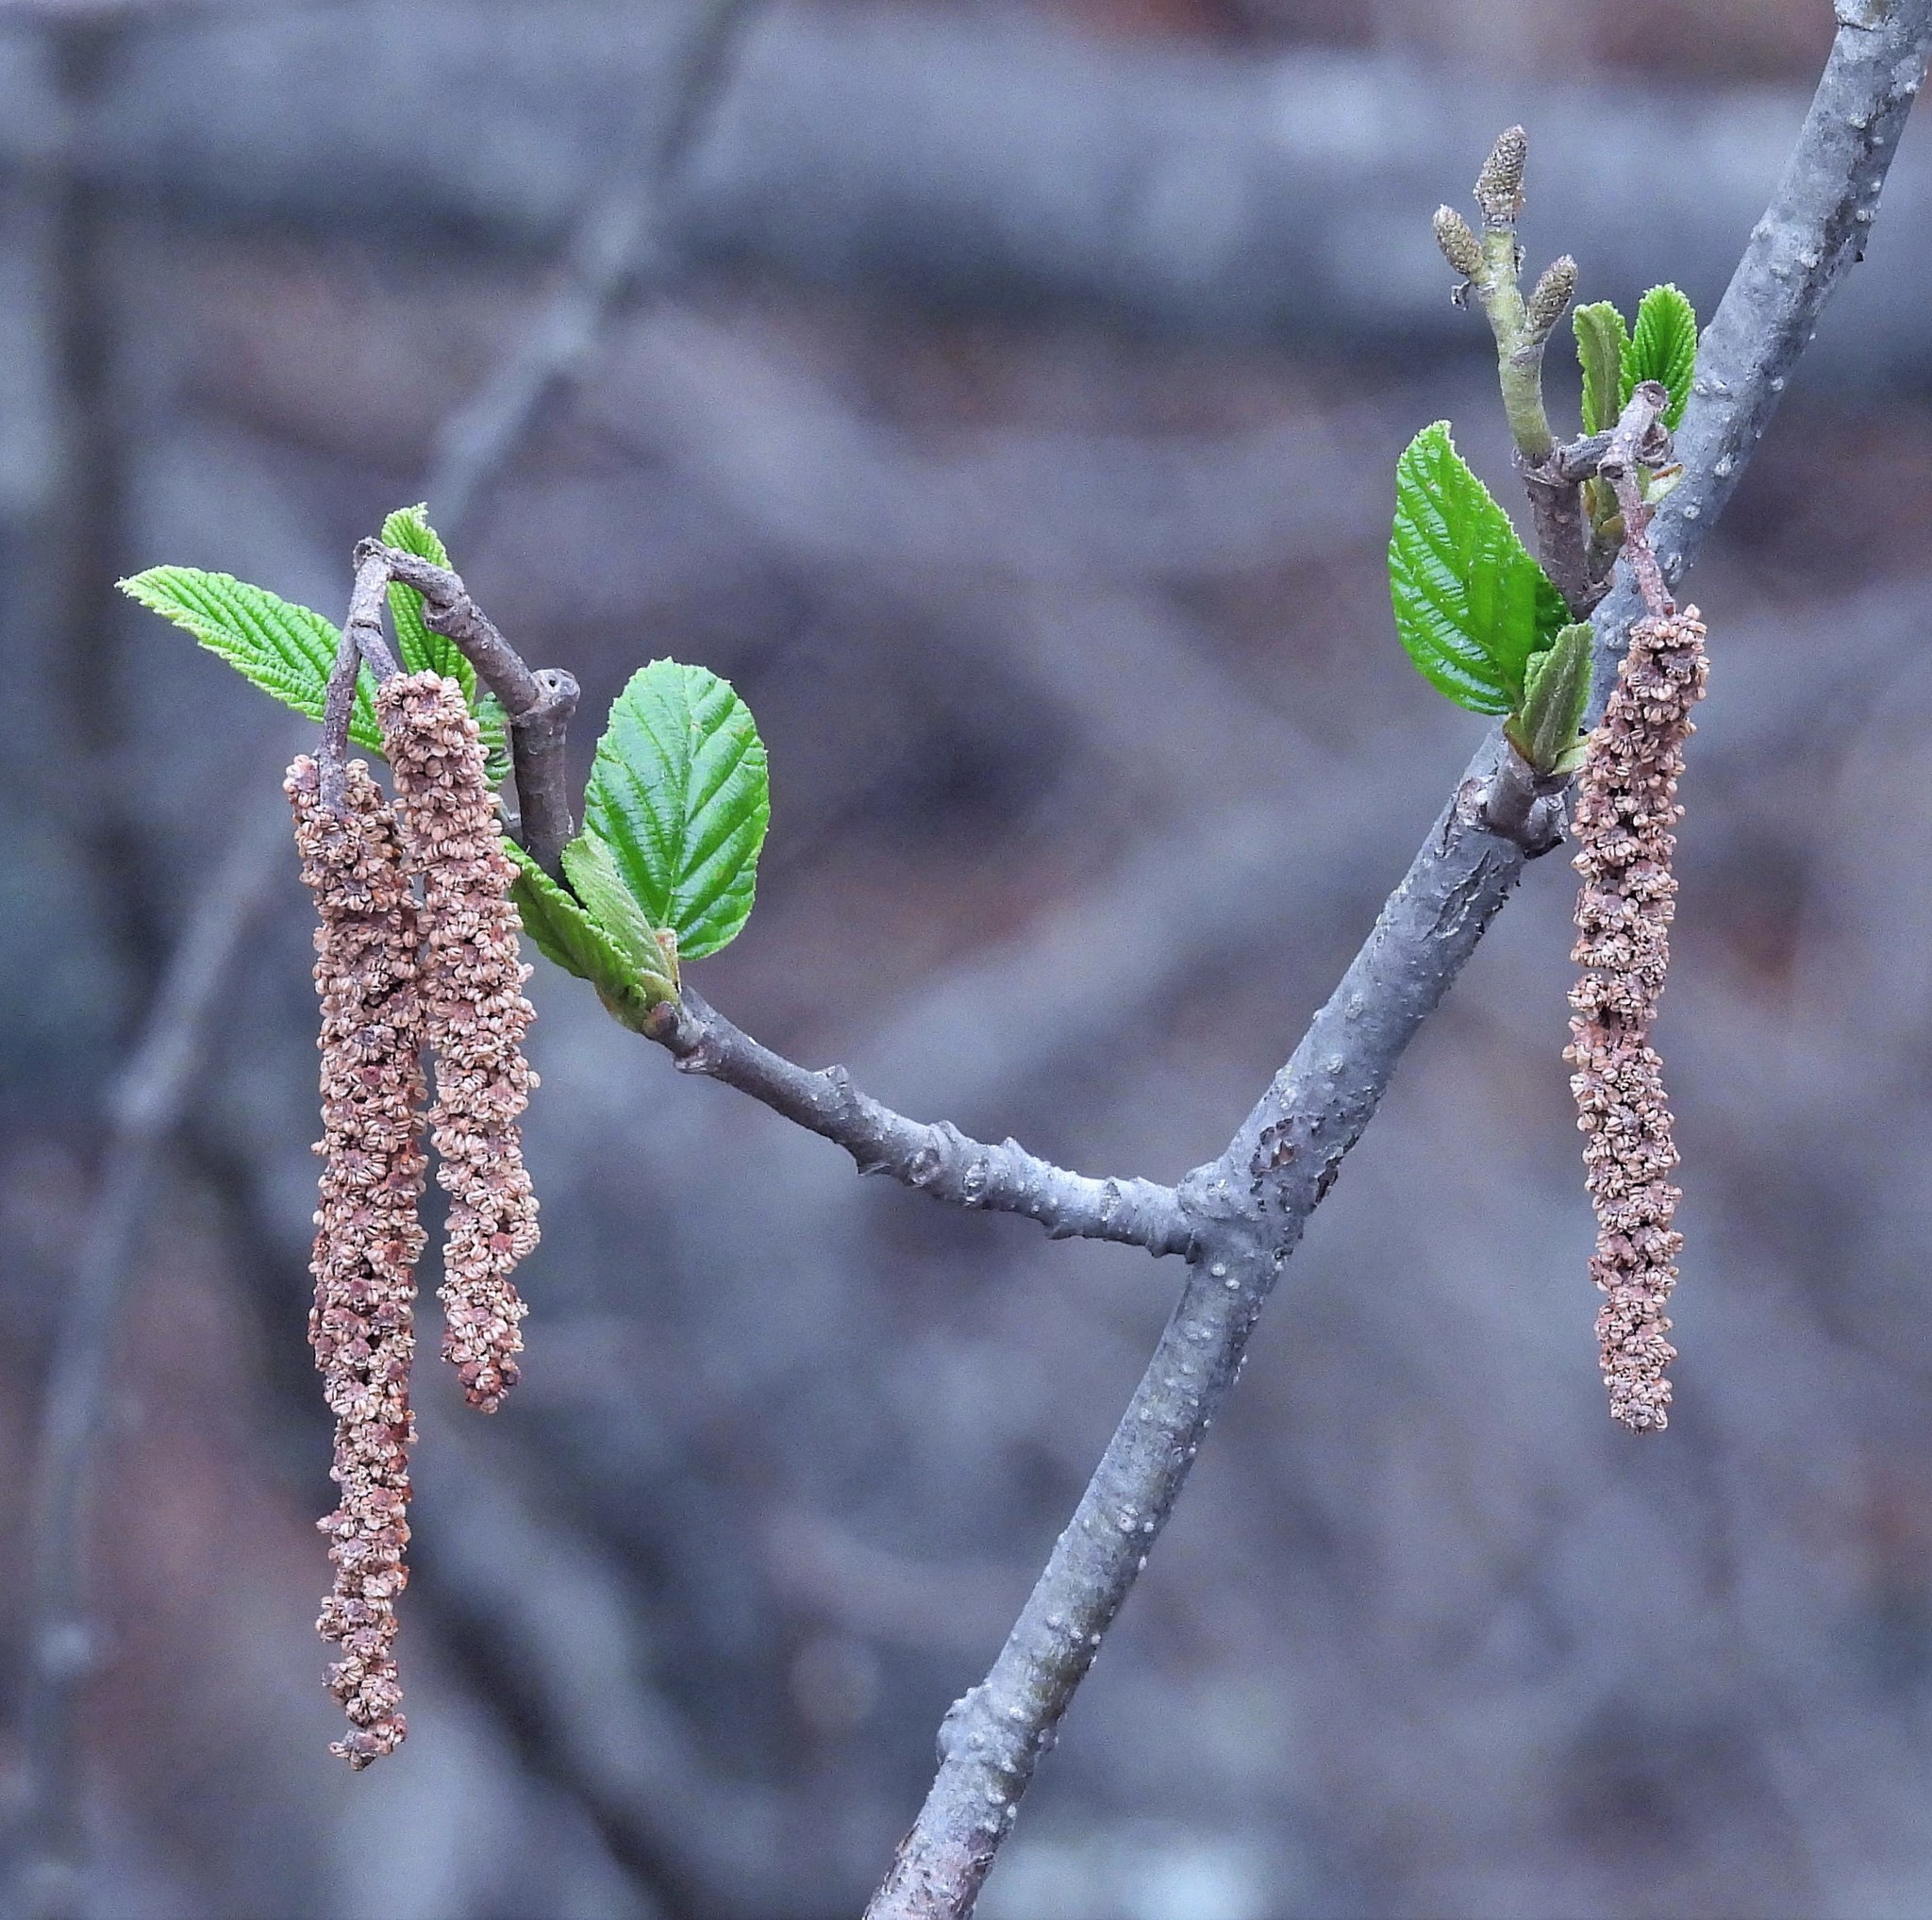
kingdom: Plantae
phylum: Tracheophyta
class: Magnoliopsida
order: Fagales
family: Betulaceae
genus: Alnus
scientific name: Alnus acuminata
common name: Alder
